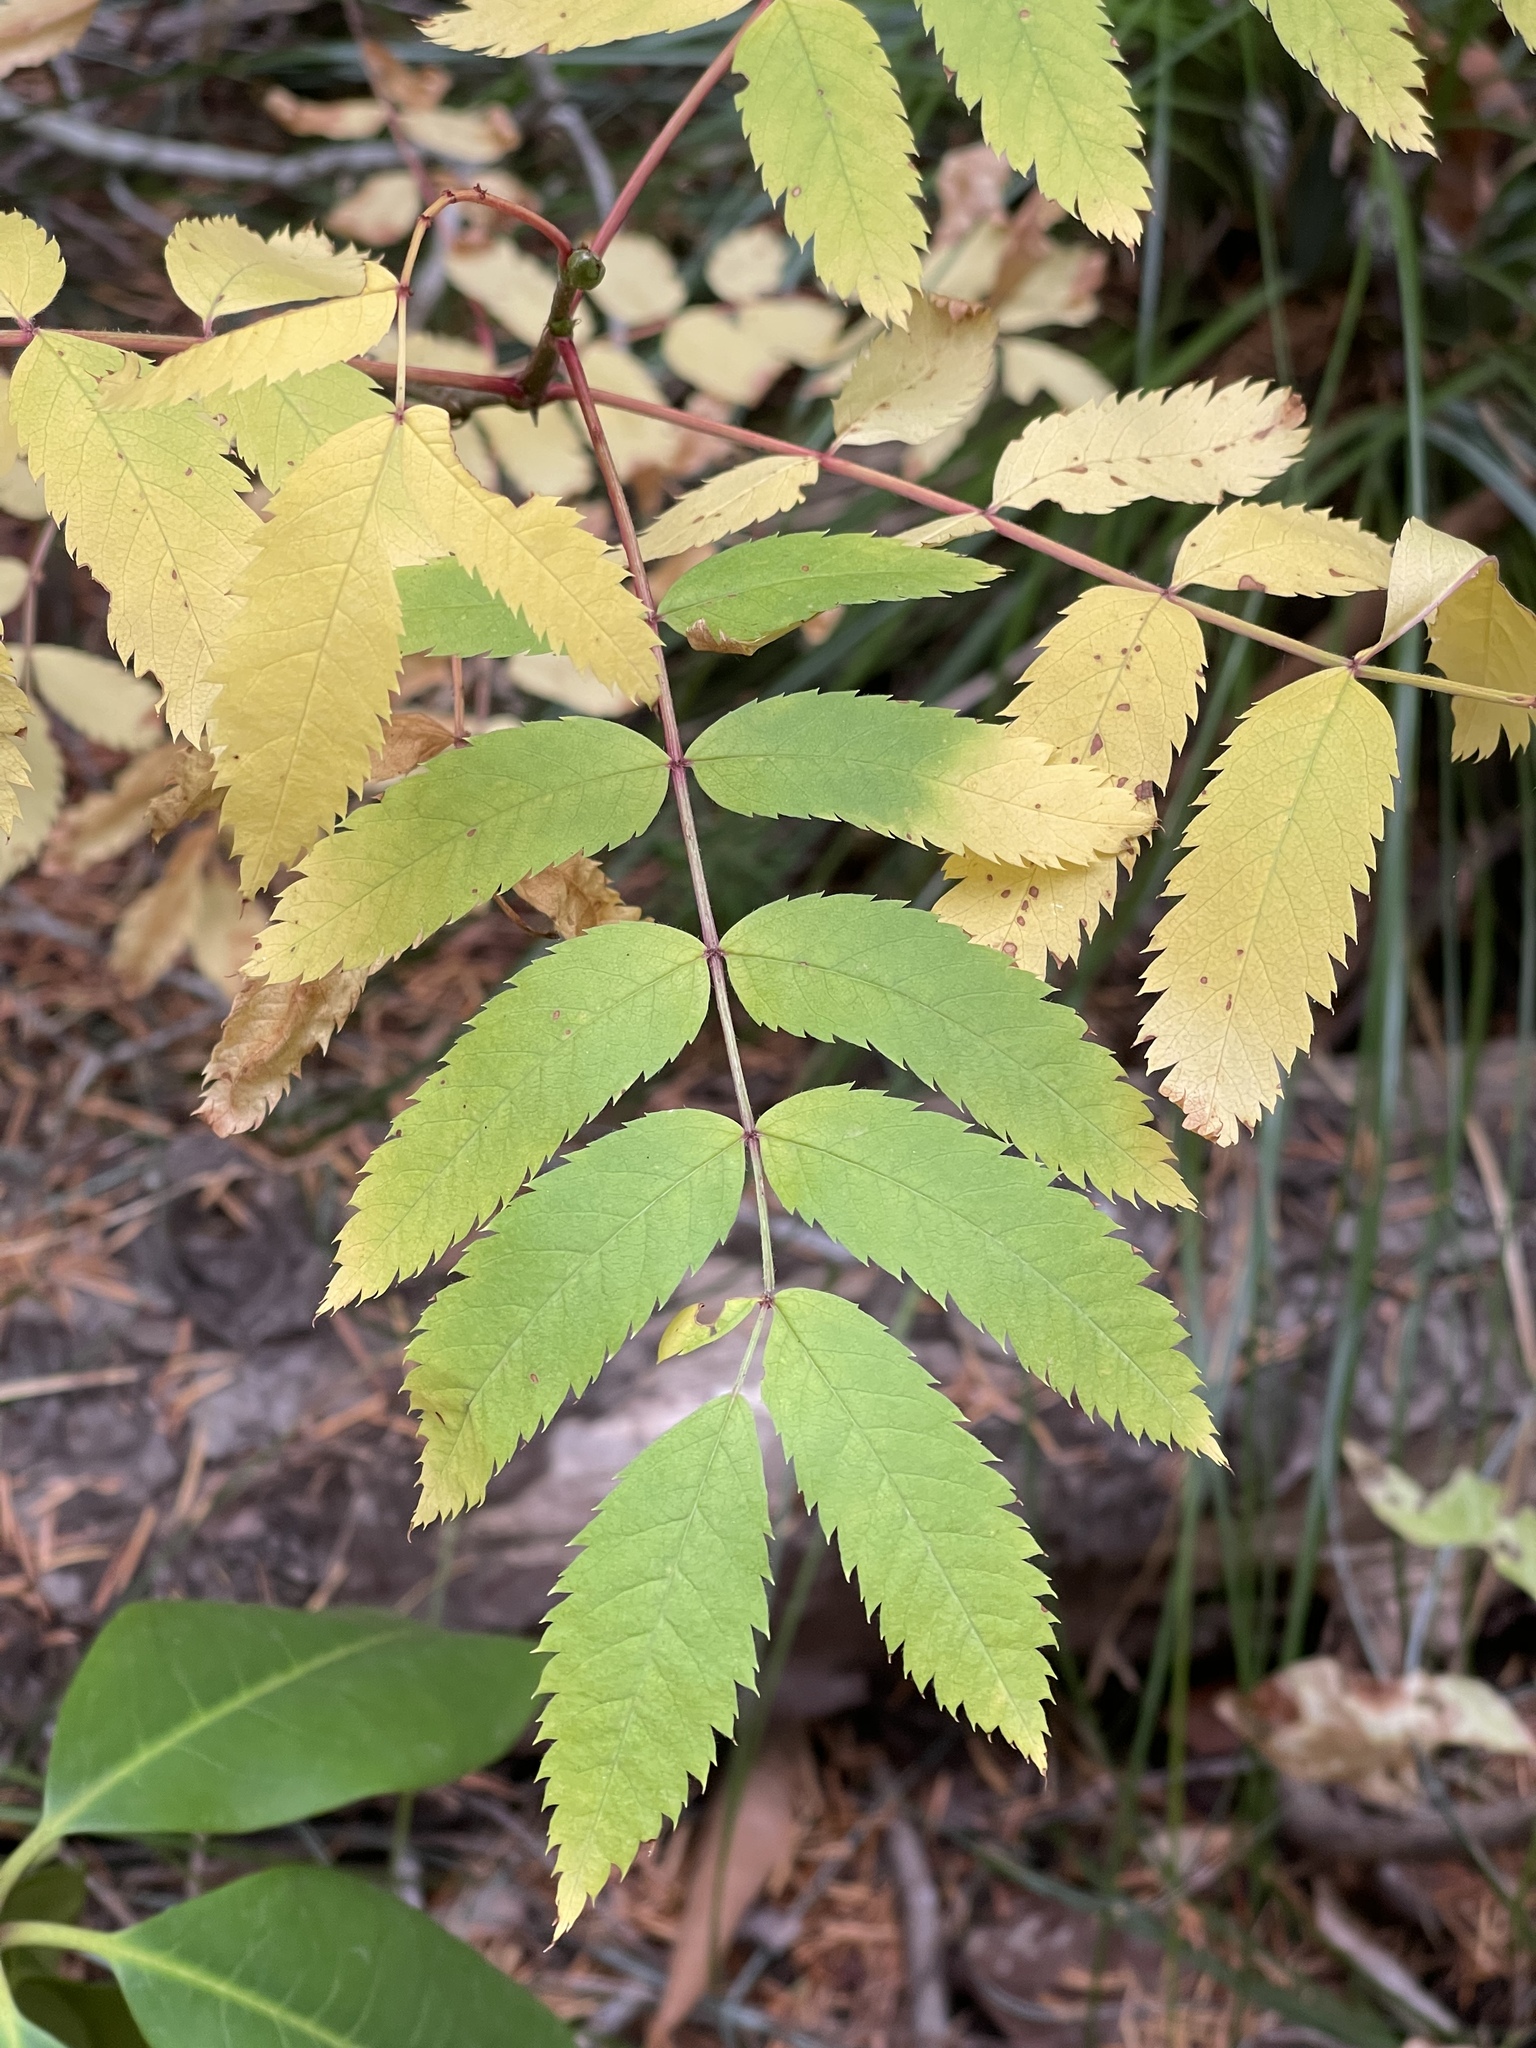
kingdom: Plantae
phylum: Tracheophyta
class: Magnoliopsida
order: Rosales
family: Rosaceae
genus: Sorbus
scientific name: Sorbus scopulina
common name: Greene's mountain-ash
